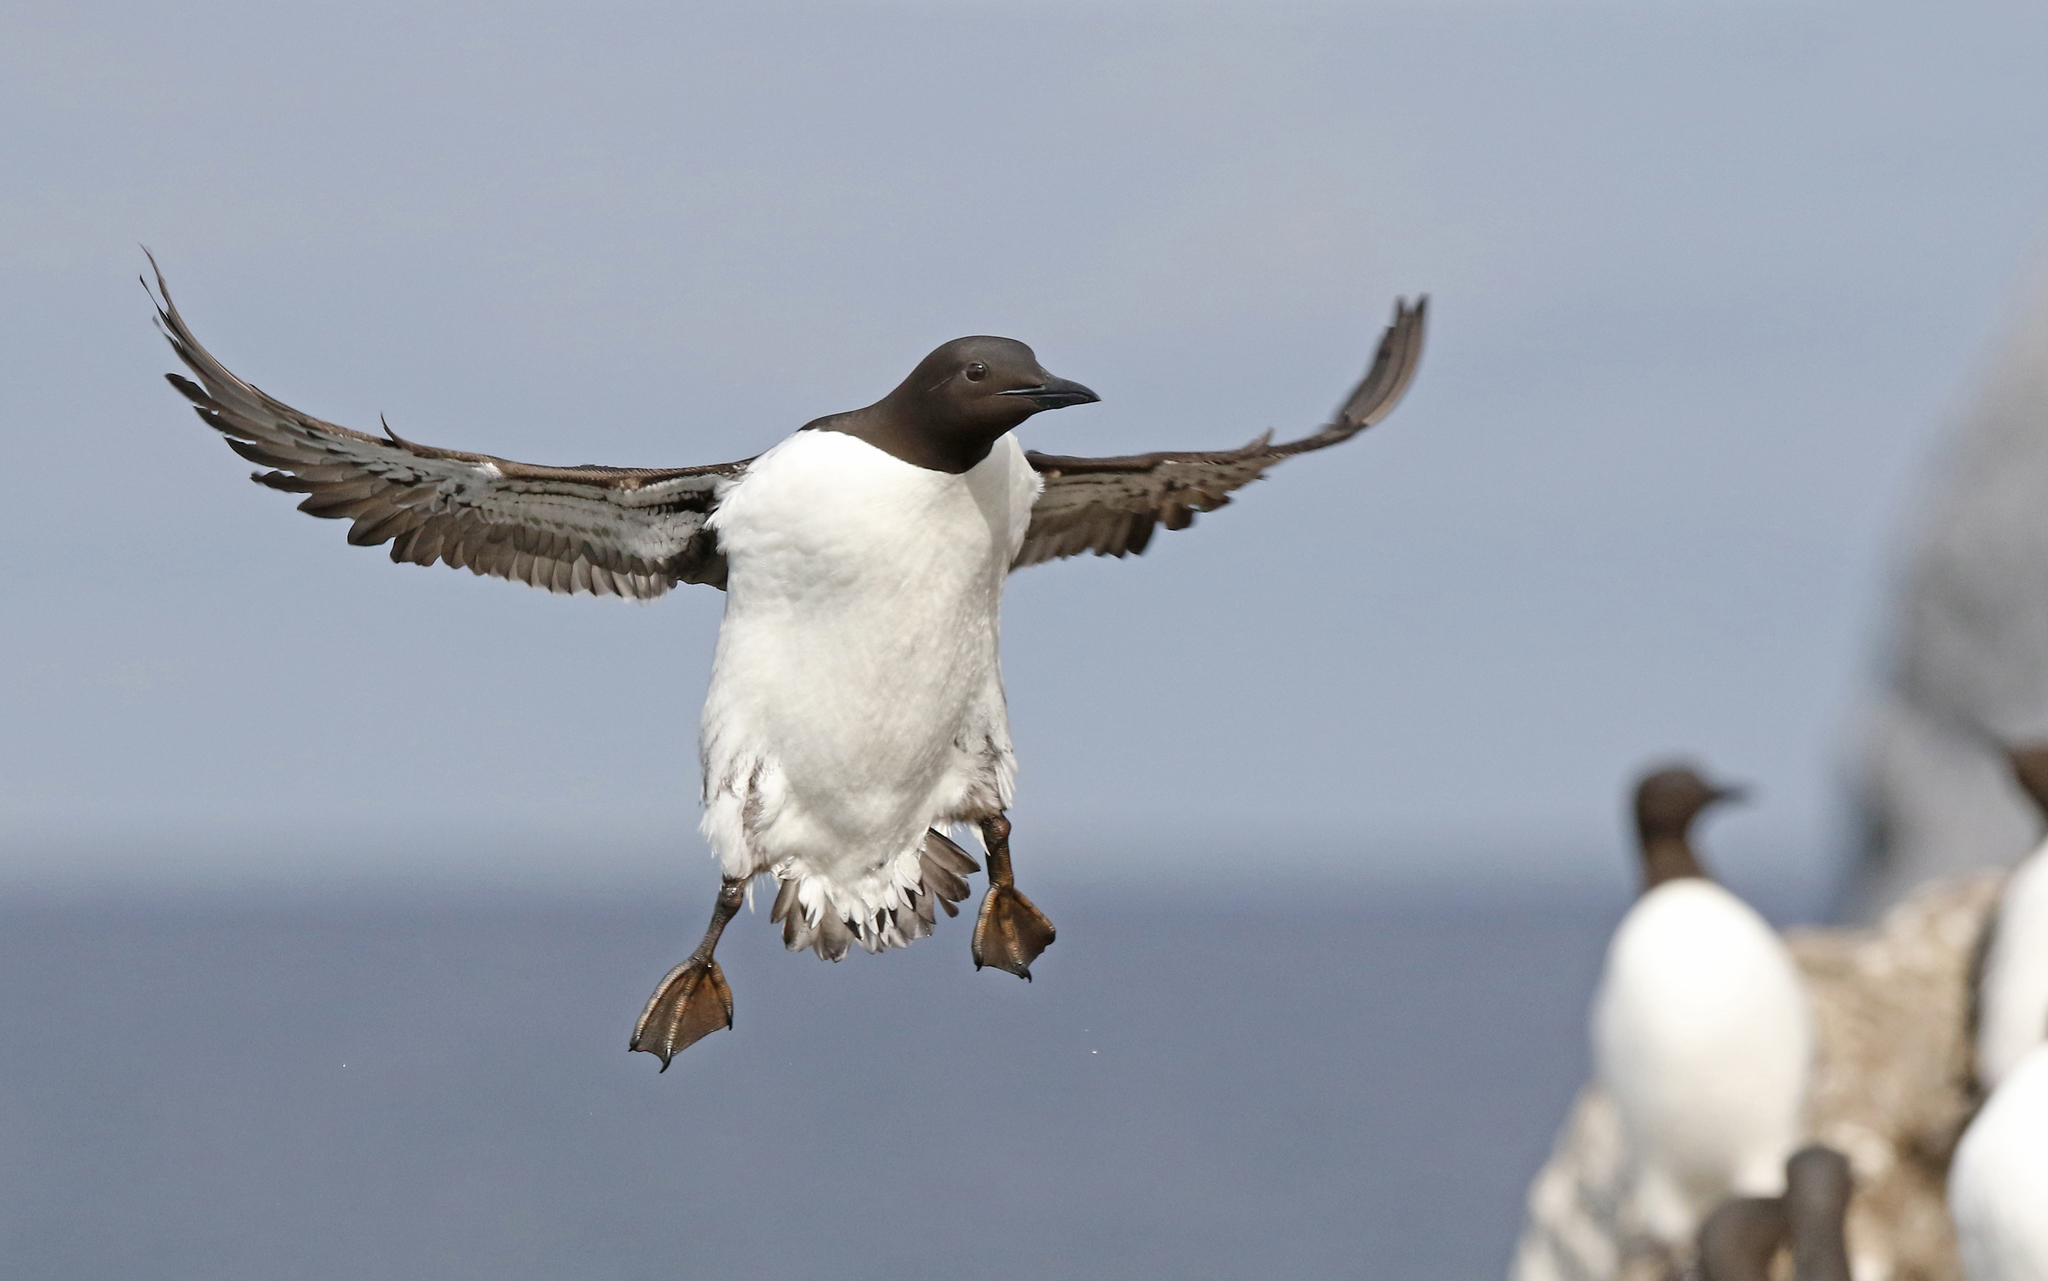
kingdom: Animalia
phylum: Chordata
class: Aves
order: Charadriiformes
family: Alcidae
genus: Uria
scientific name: Uria aalge
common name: Common murre
